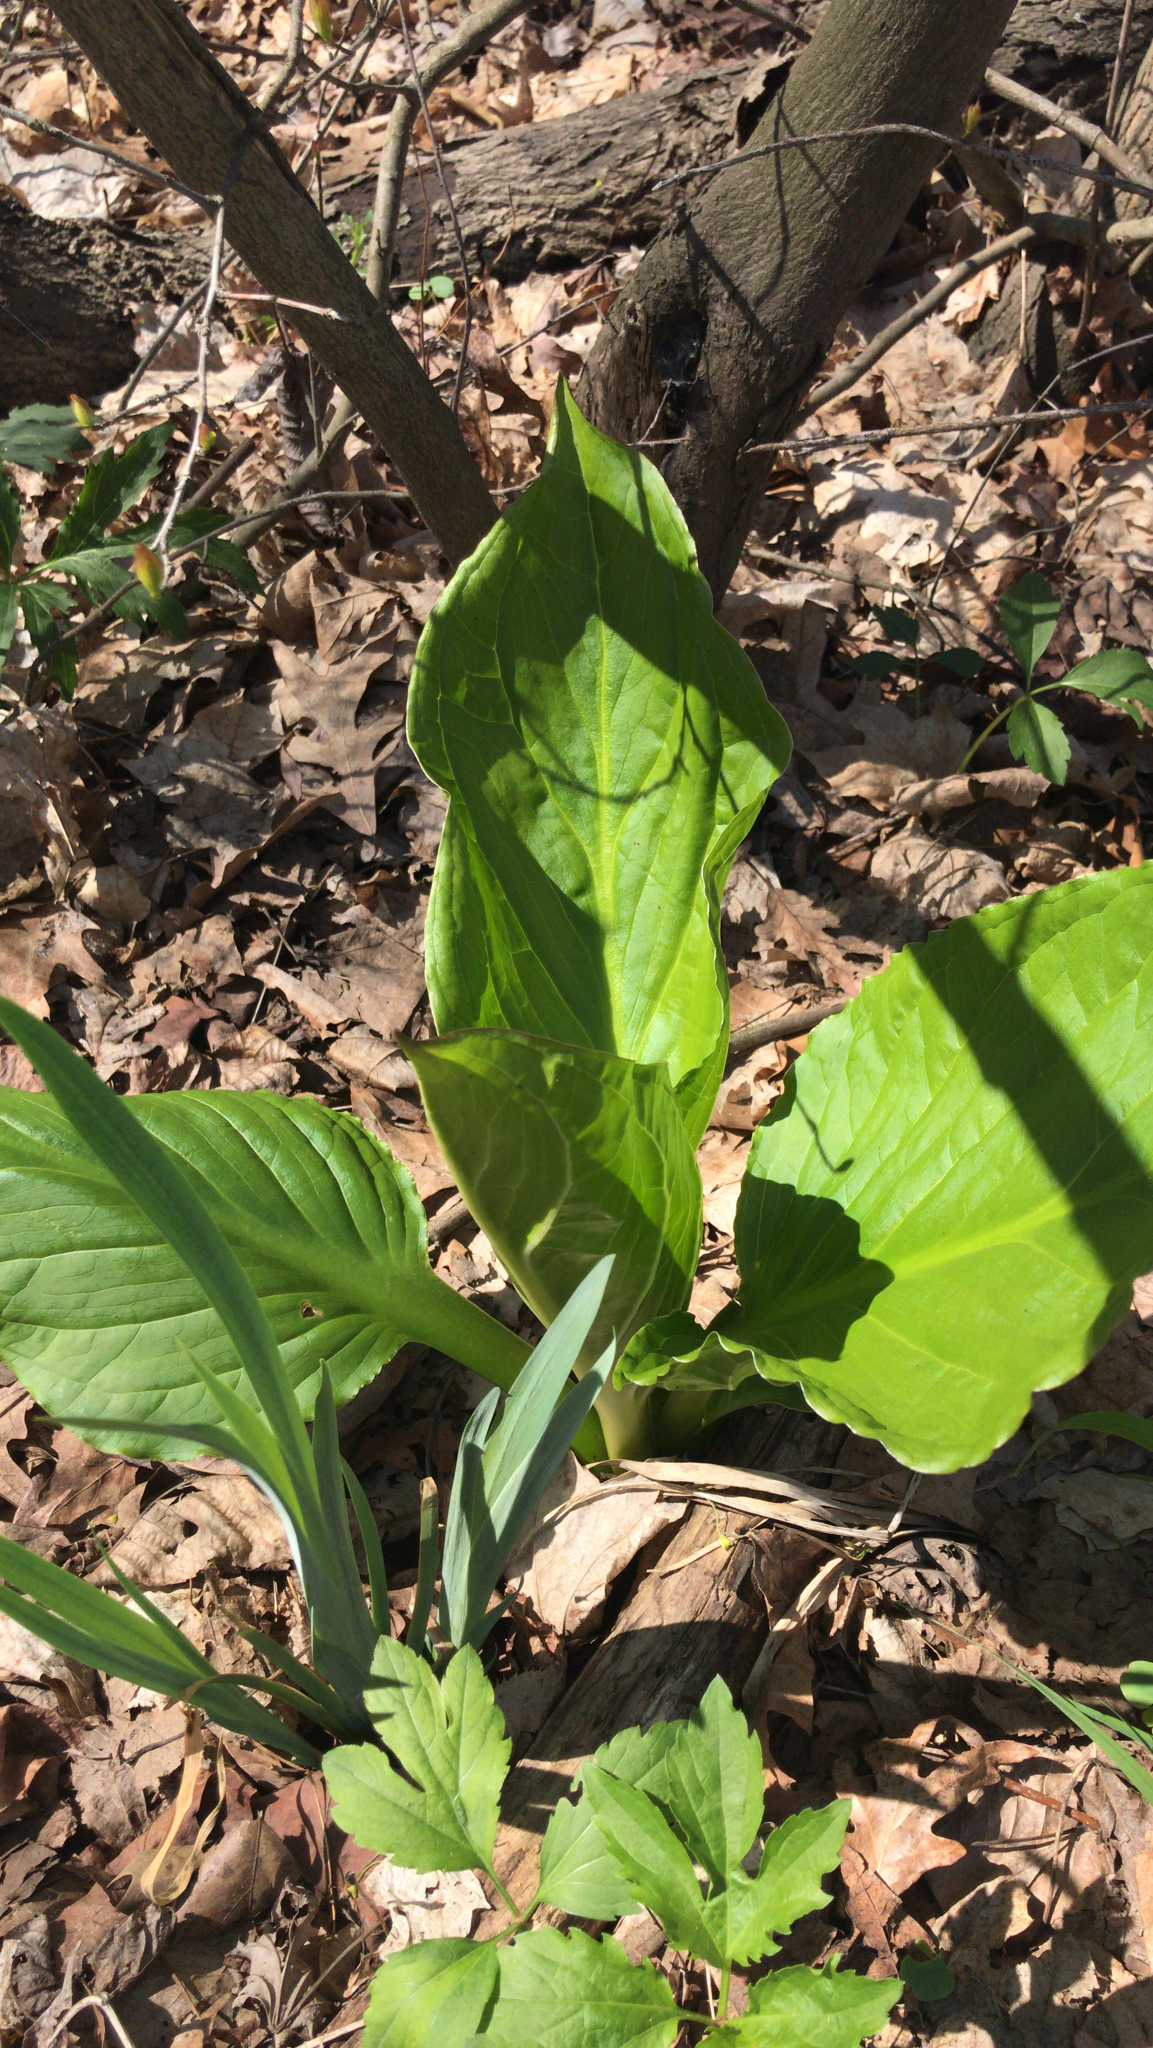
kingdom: Plantae
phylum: Tracheophyta
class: Liliopsida
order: Alismatales
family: Araceae
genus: Symplocarpus
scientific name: Symplocarpus foetidus
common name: Eastern skunk cabbage
